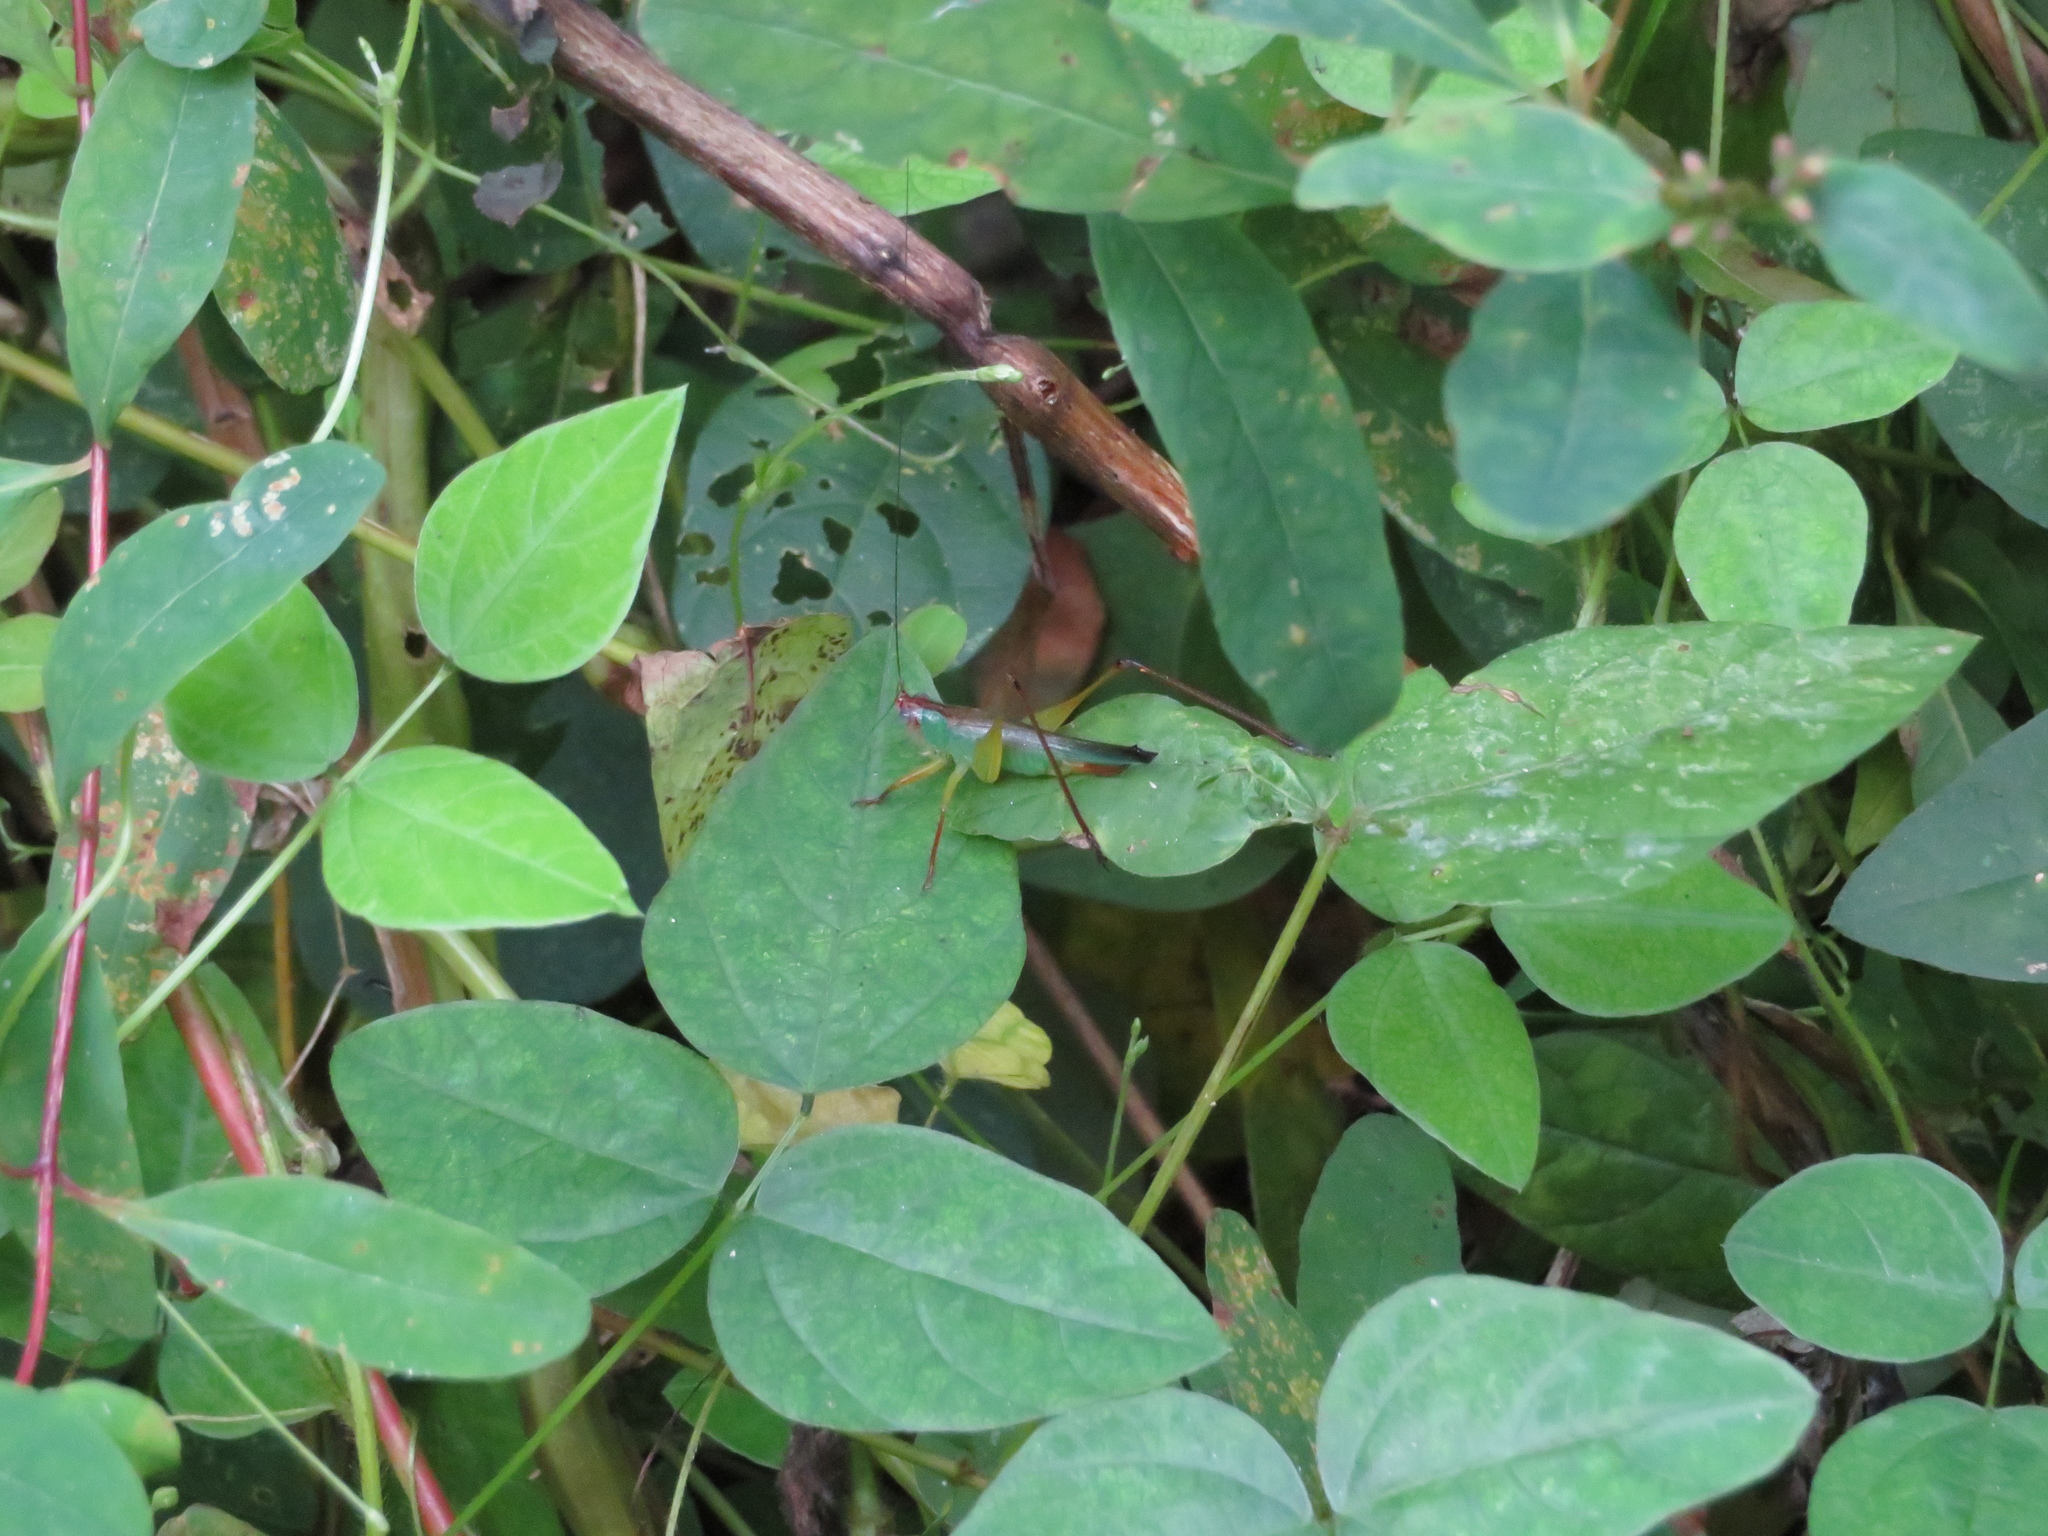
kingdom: Animalia
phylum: Arthropoda
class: Insecta
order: Orthoptera
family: Tettigoniidae
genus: Orchelimum
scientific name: Orchelimum pulchellum
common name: Handsome meadow katydid
